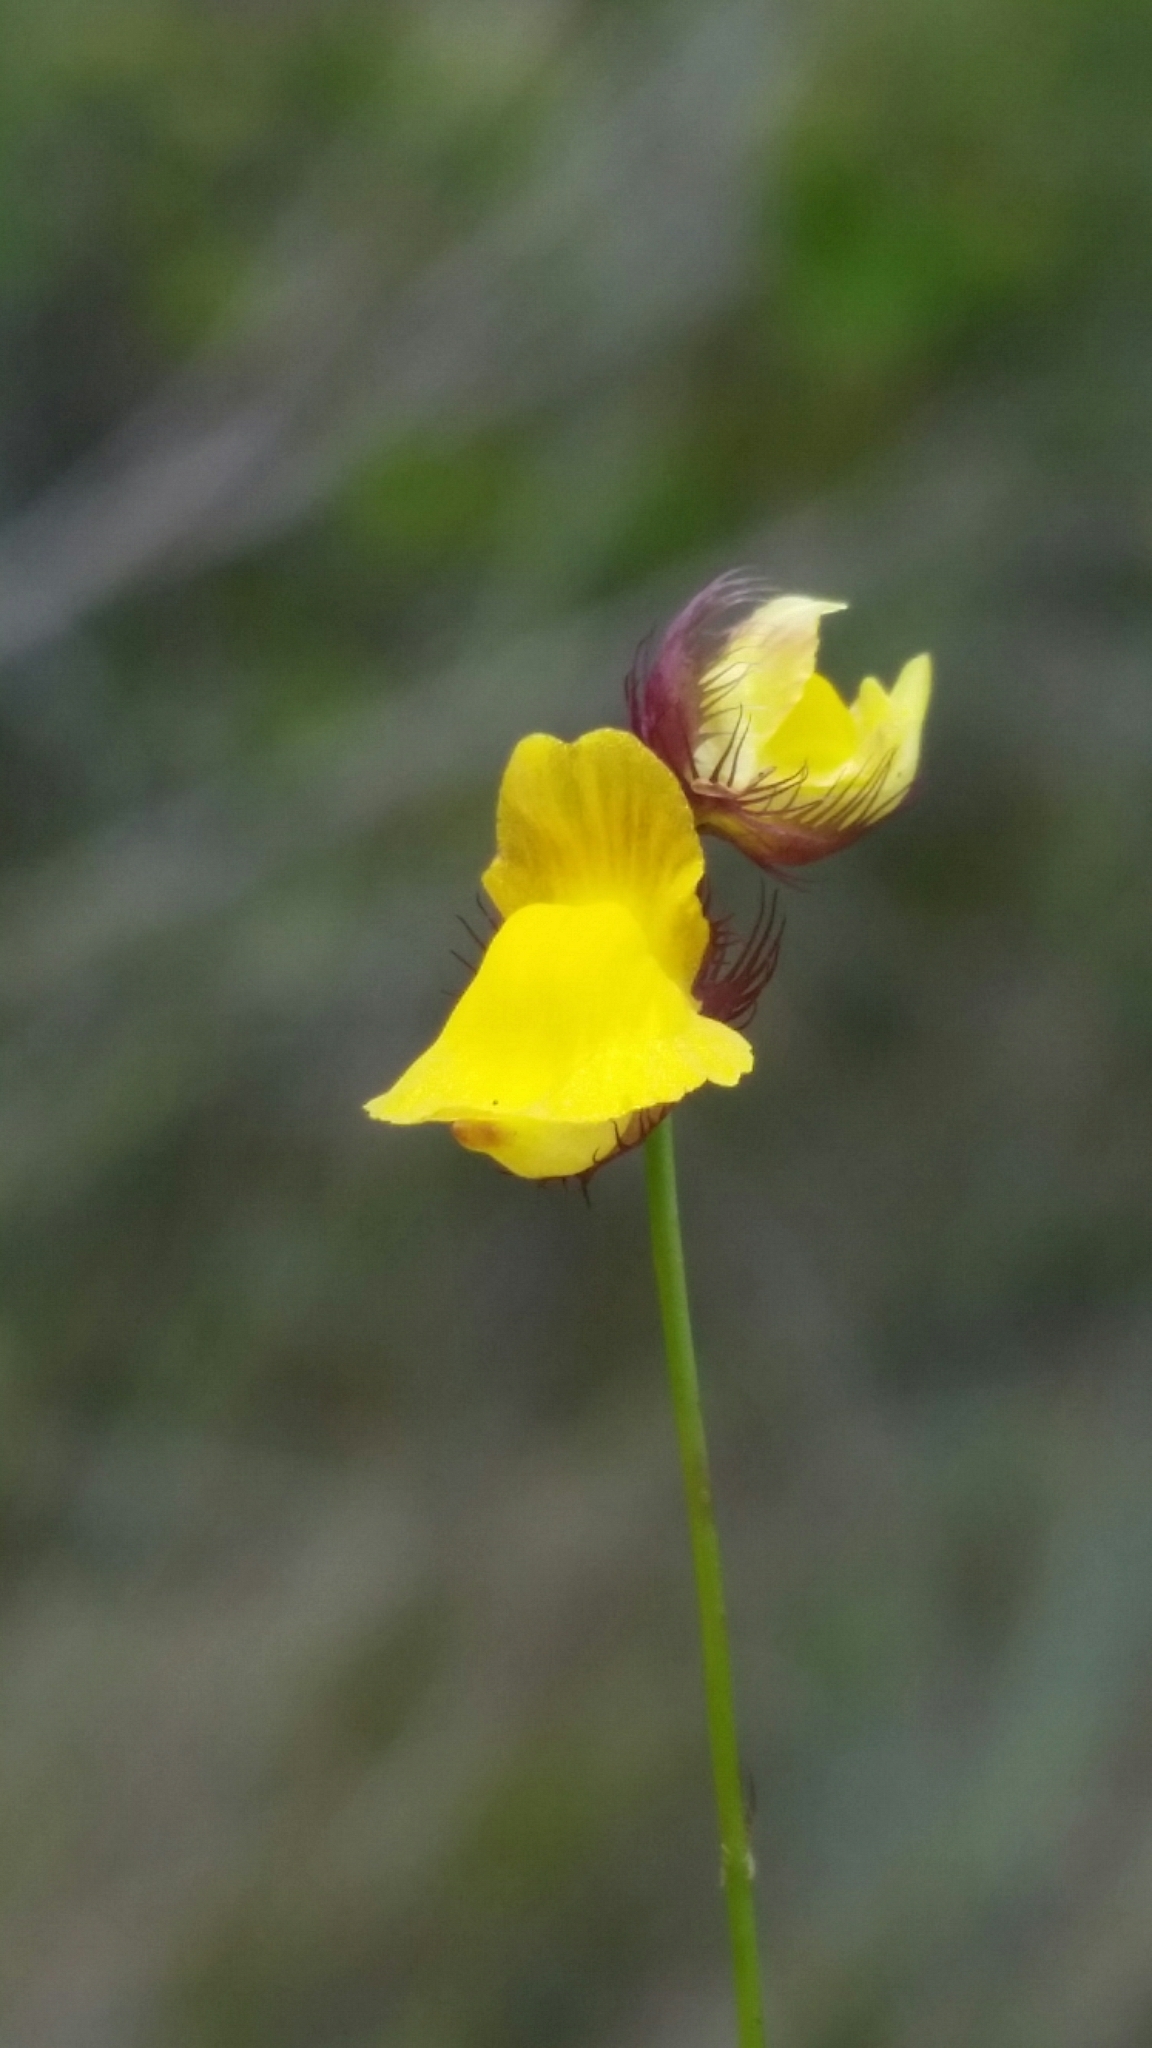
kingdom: Plantae
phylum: Tracheophyta
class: Magnoliopsida
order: Lamiales
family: Lentibulariaceae
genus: Utricularia
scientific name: Utricularia simulans
